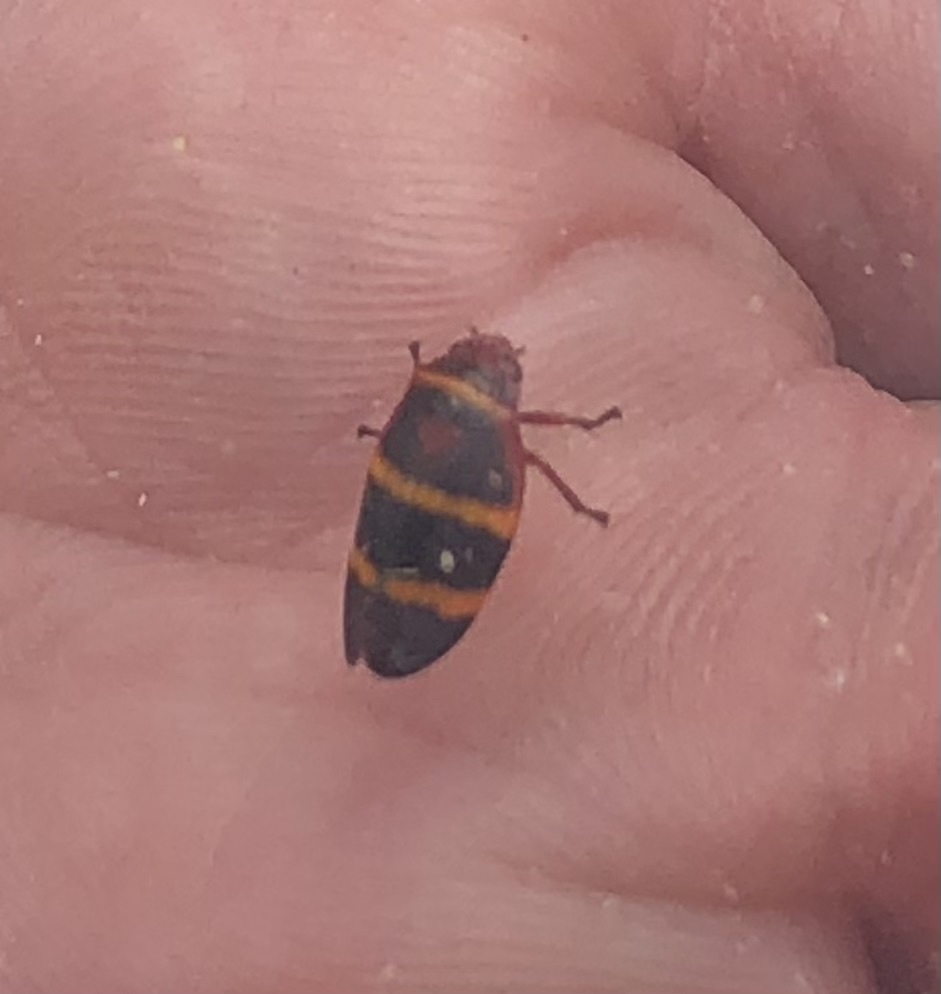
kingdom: Animalia
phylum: Arthropoda
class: Insecta
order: Hemiptera
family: Cercopidae
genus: Prosapia
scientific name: Prosapia bicincta
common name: Twolined spittlebug
